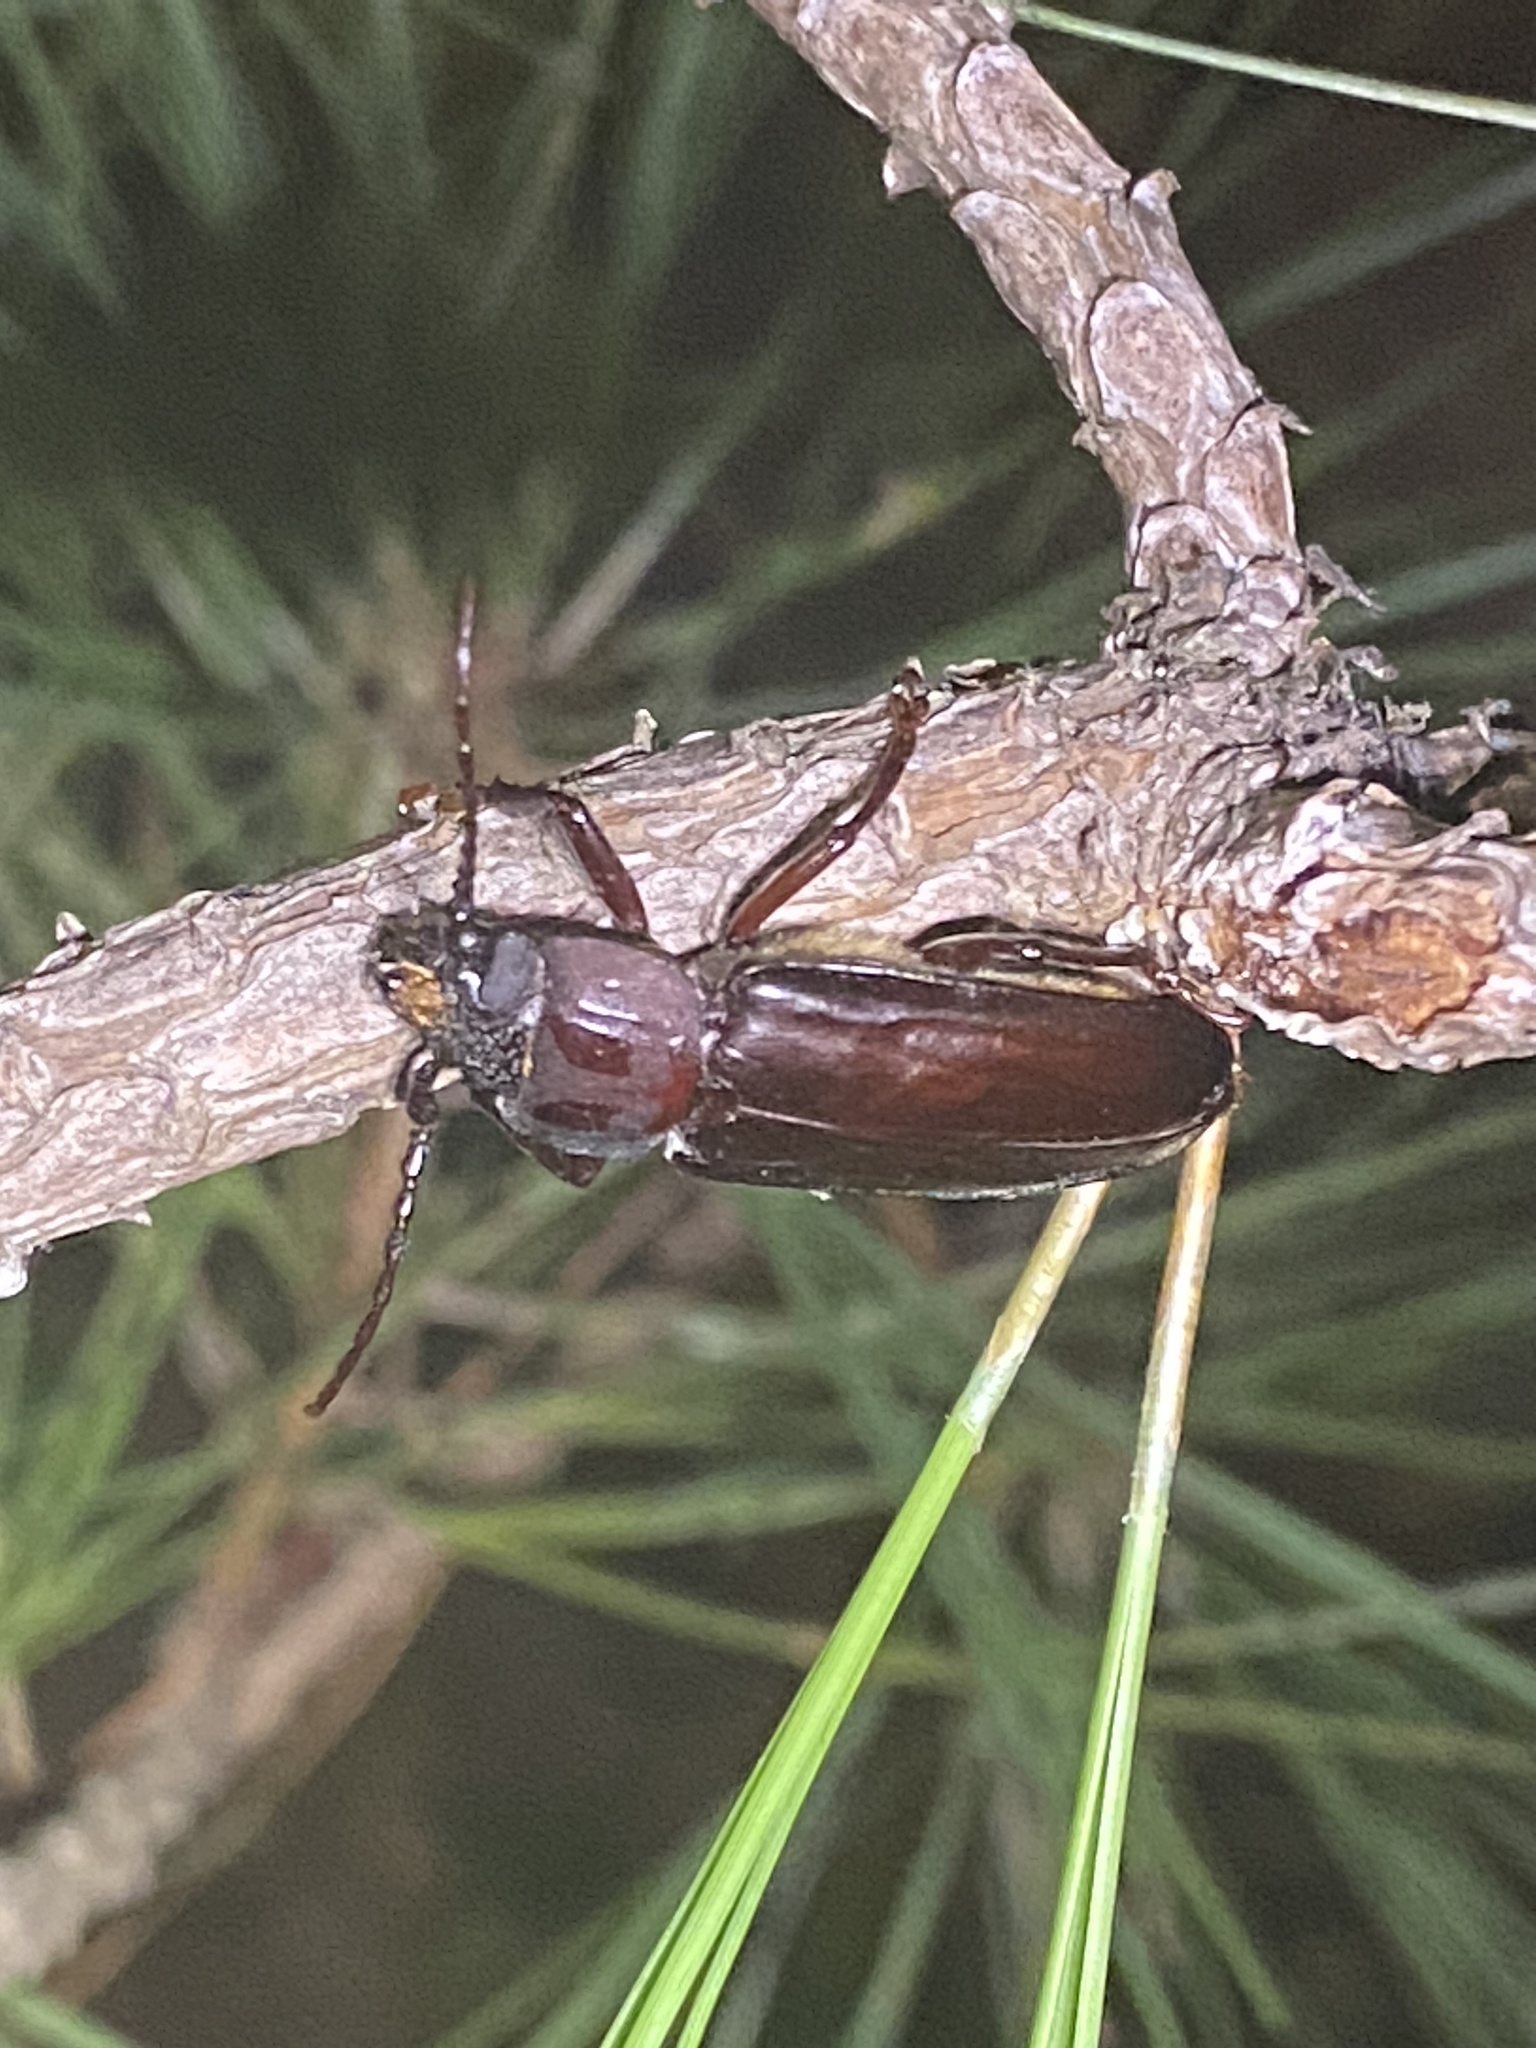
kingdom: Animalia
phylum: Arthropoda
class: Insecta
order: Coleoptera
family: Cerambycidae
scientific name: Cerambycidae
